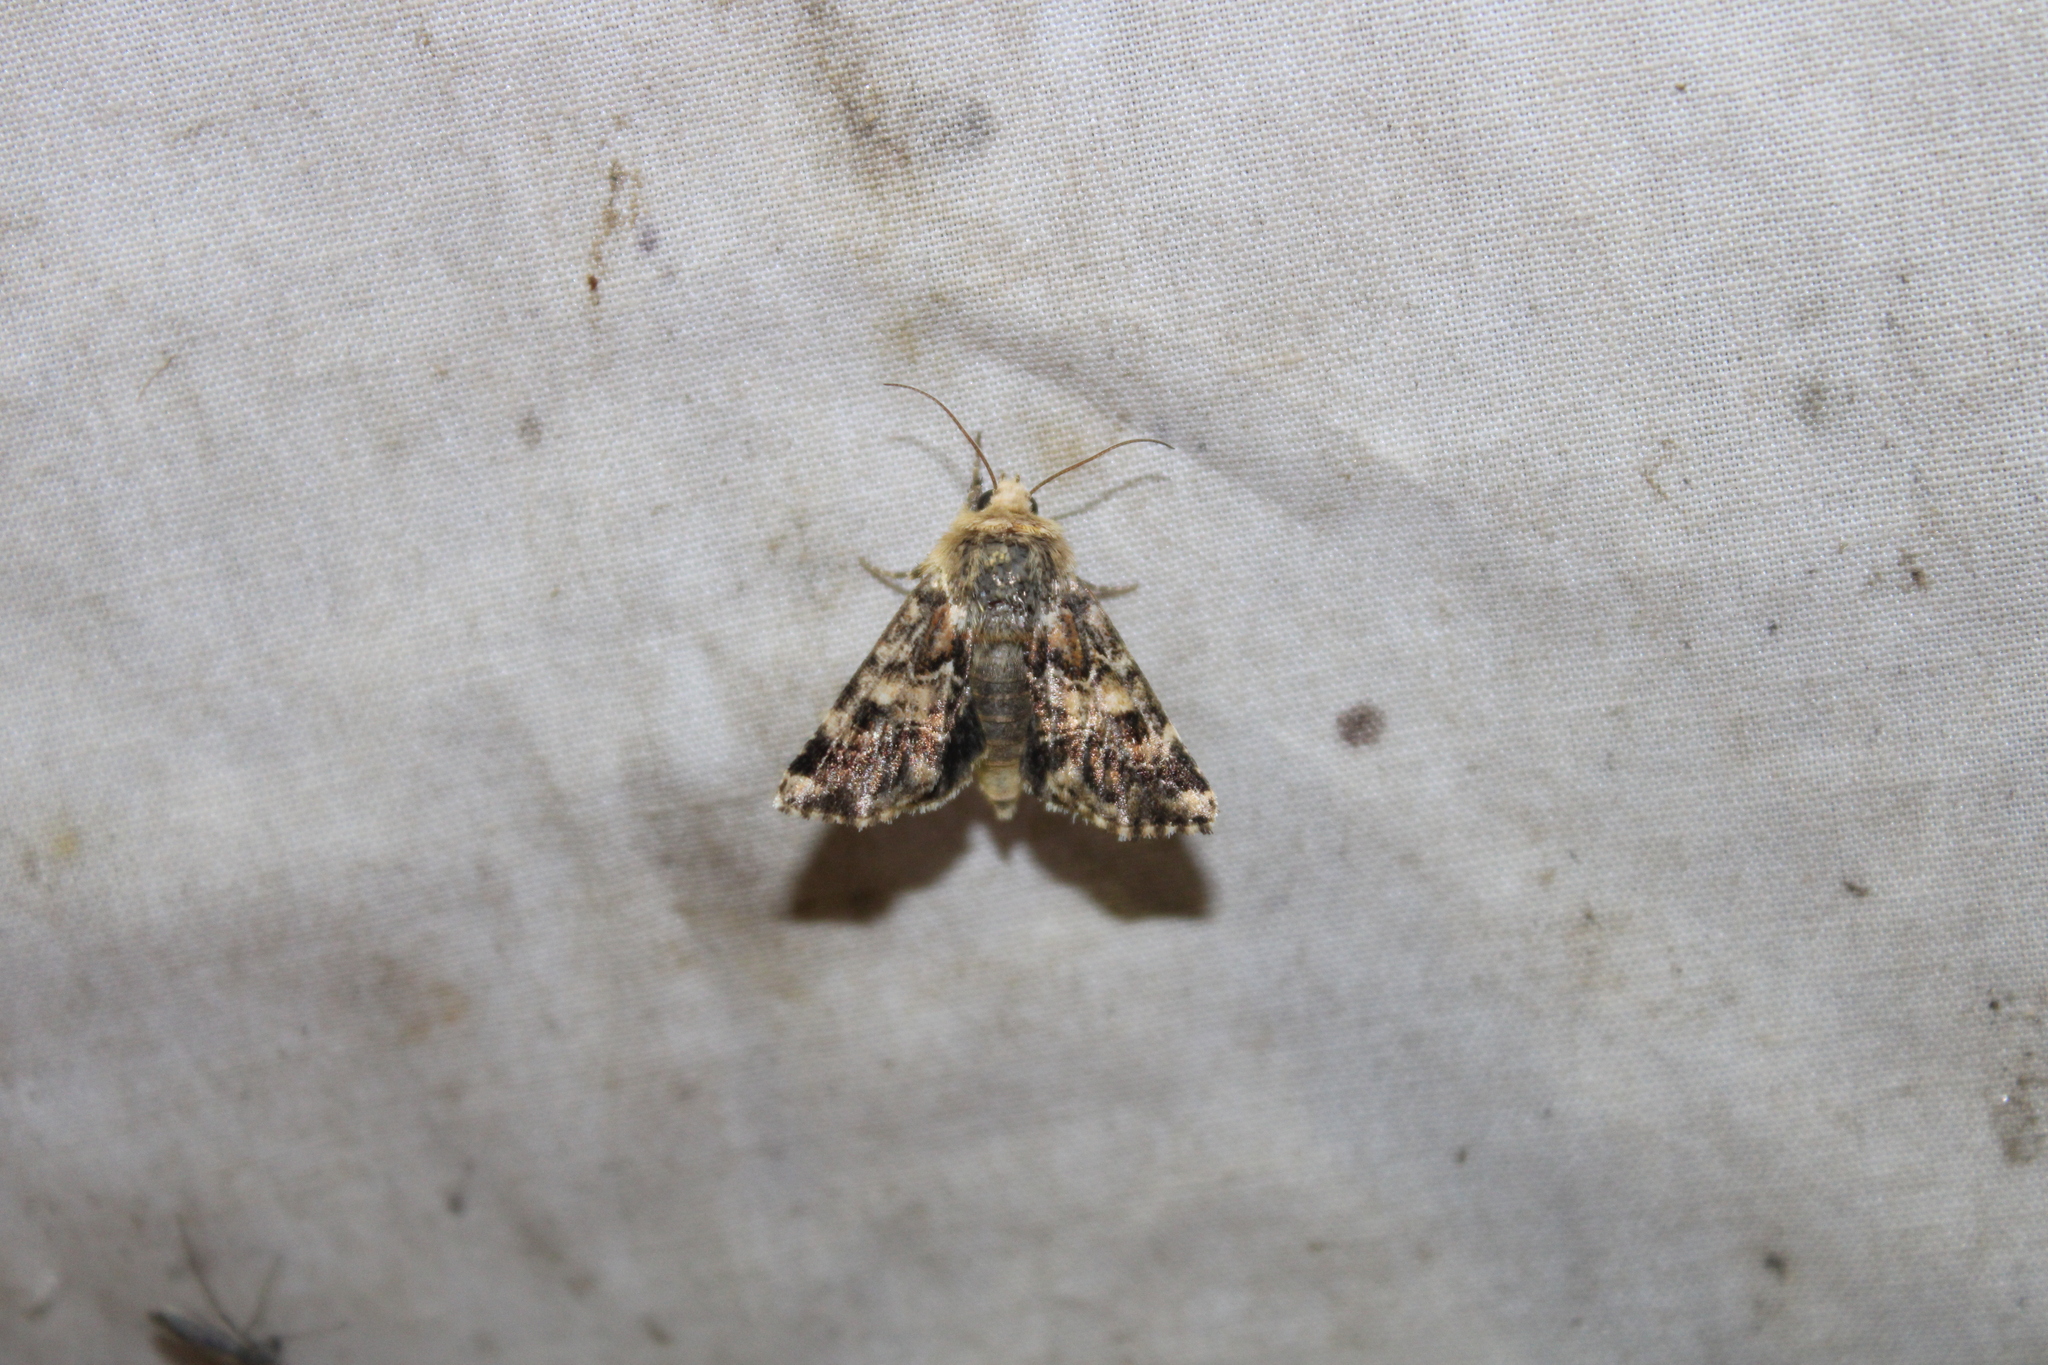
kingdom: Animalia
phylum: Arthropoda
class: Insecta
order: Lepidoptera
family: Noctuidae
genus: Schinia
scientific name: Schinia septentrionalis
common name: Northern flower moth
